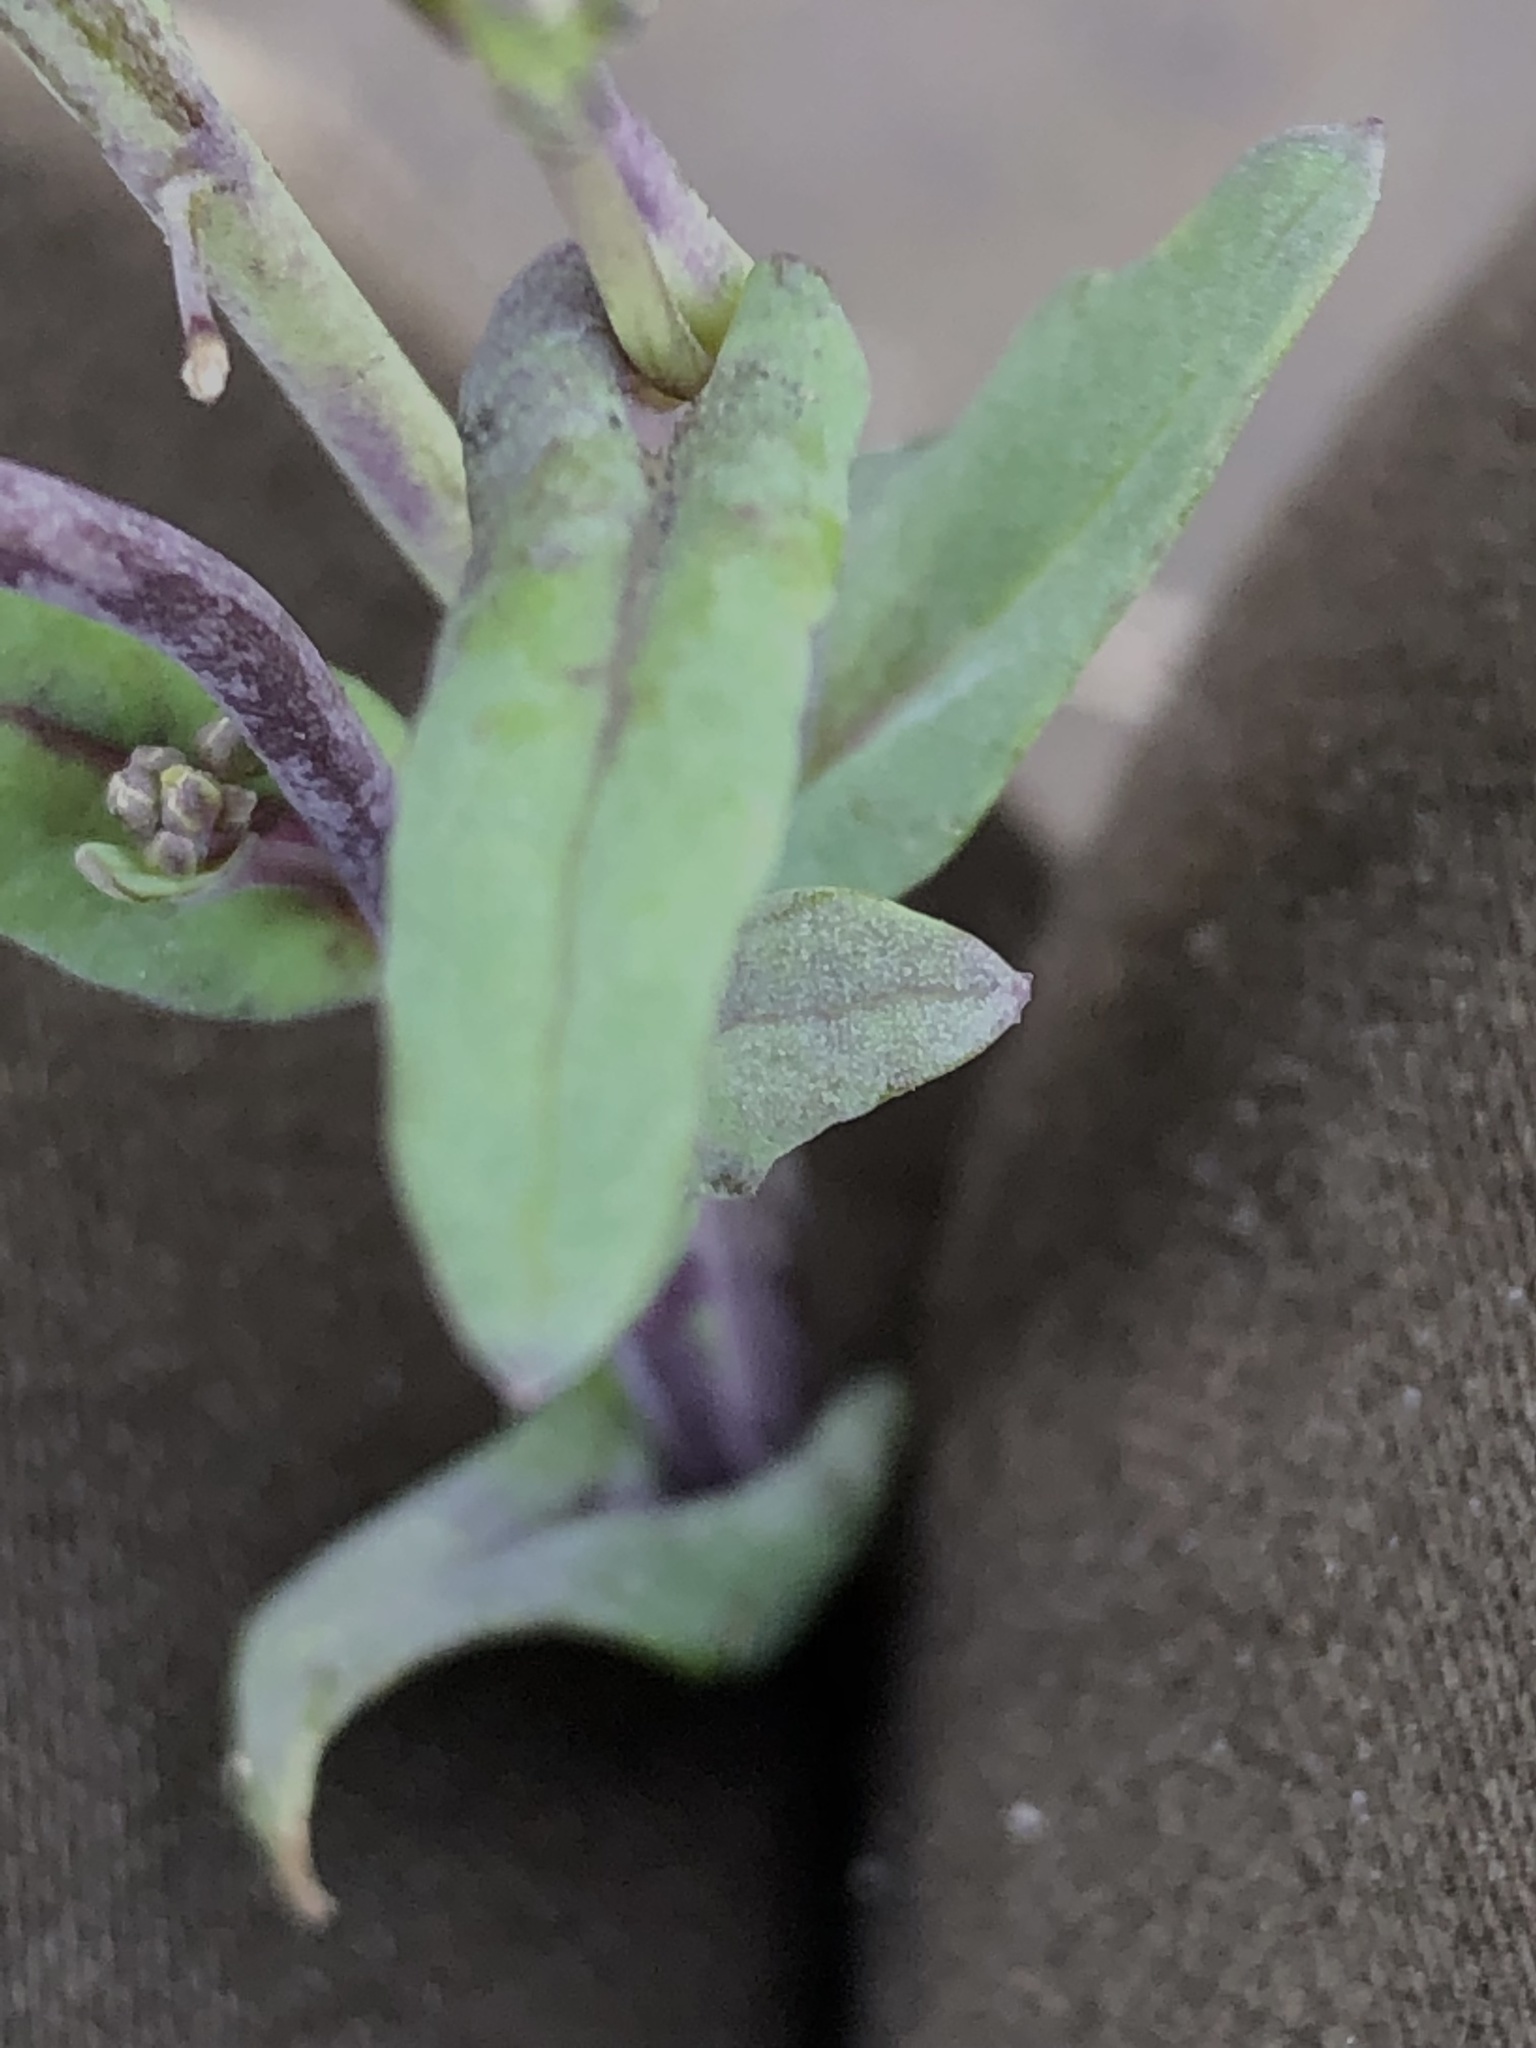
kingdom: Plantae
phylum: Tracheophyta
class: Magnoliopsida
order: Brassicales
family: Brassicaceae
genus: Brassica
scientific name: Brassica napus
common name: Rape
